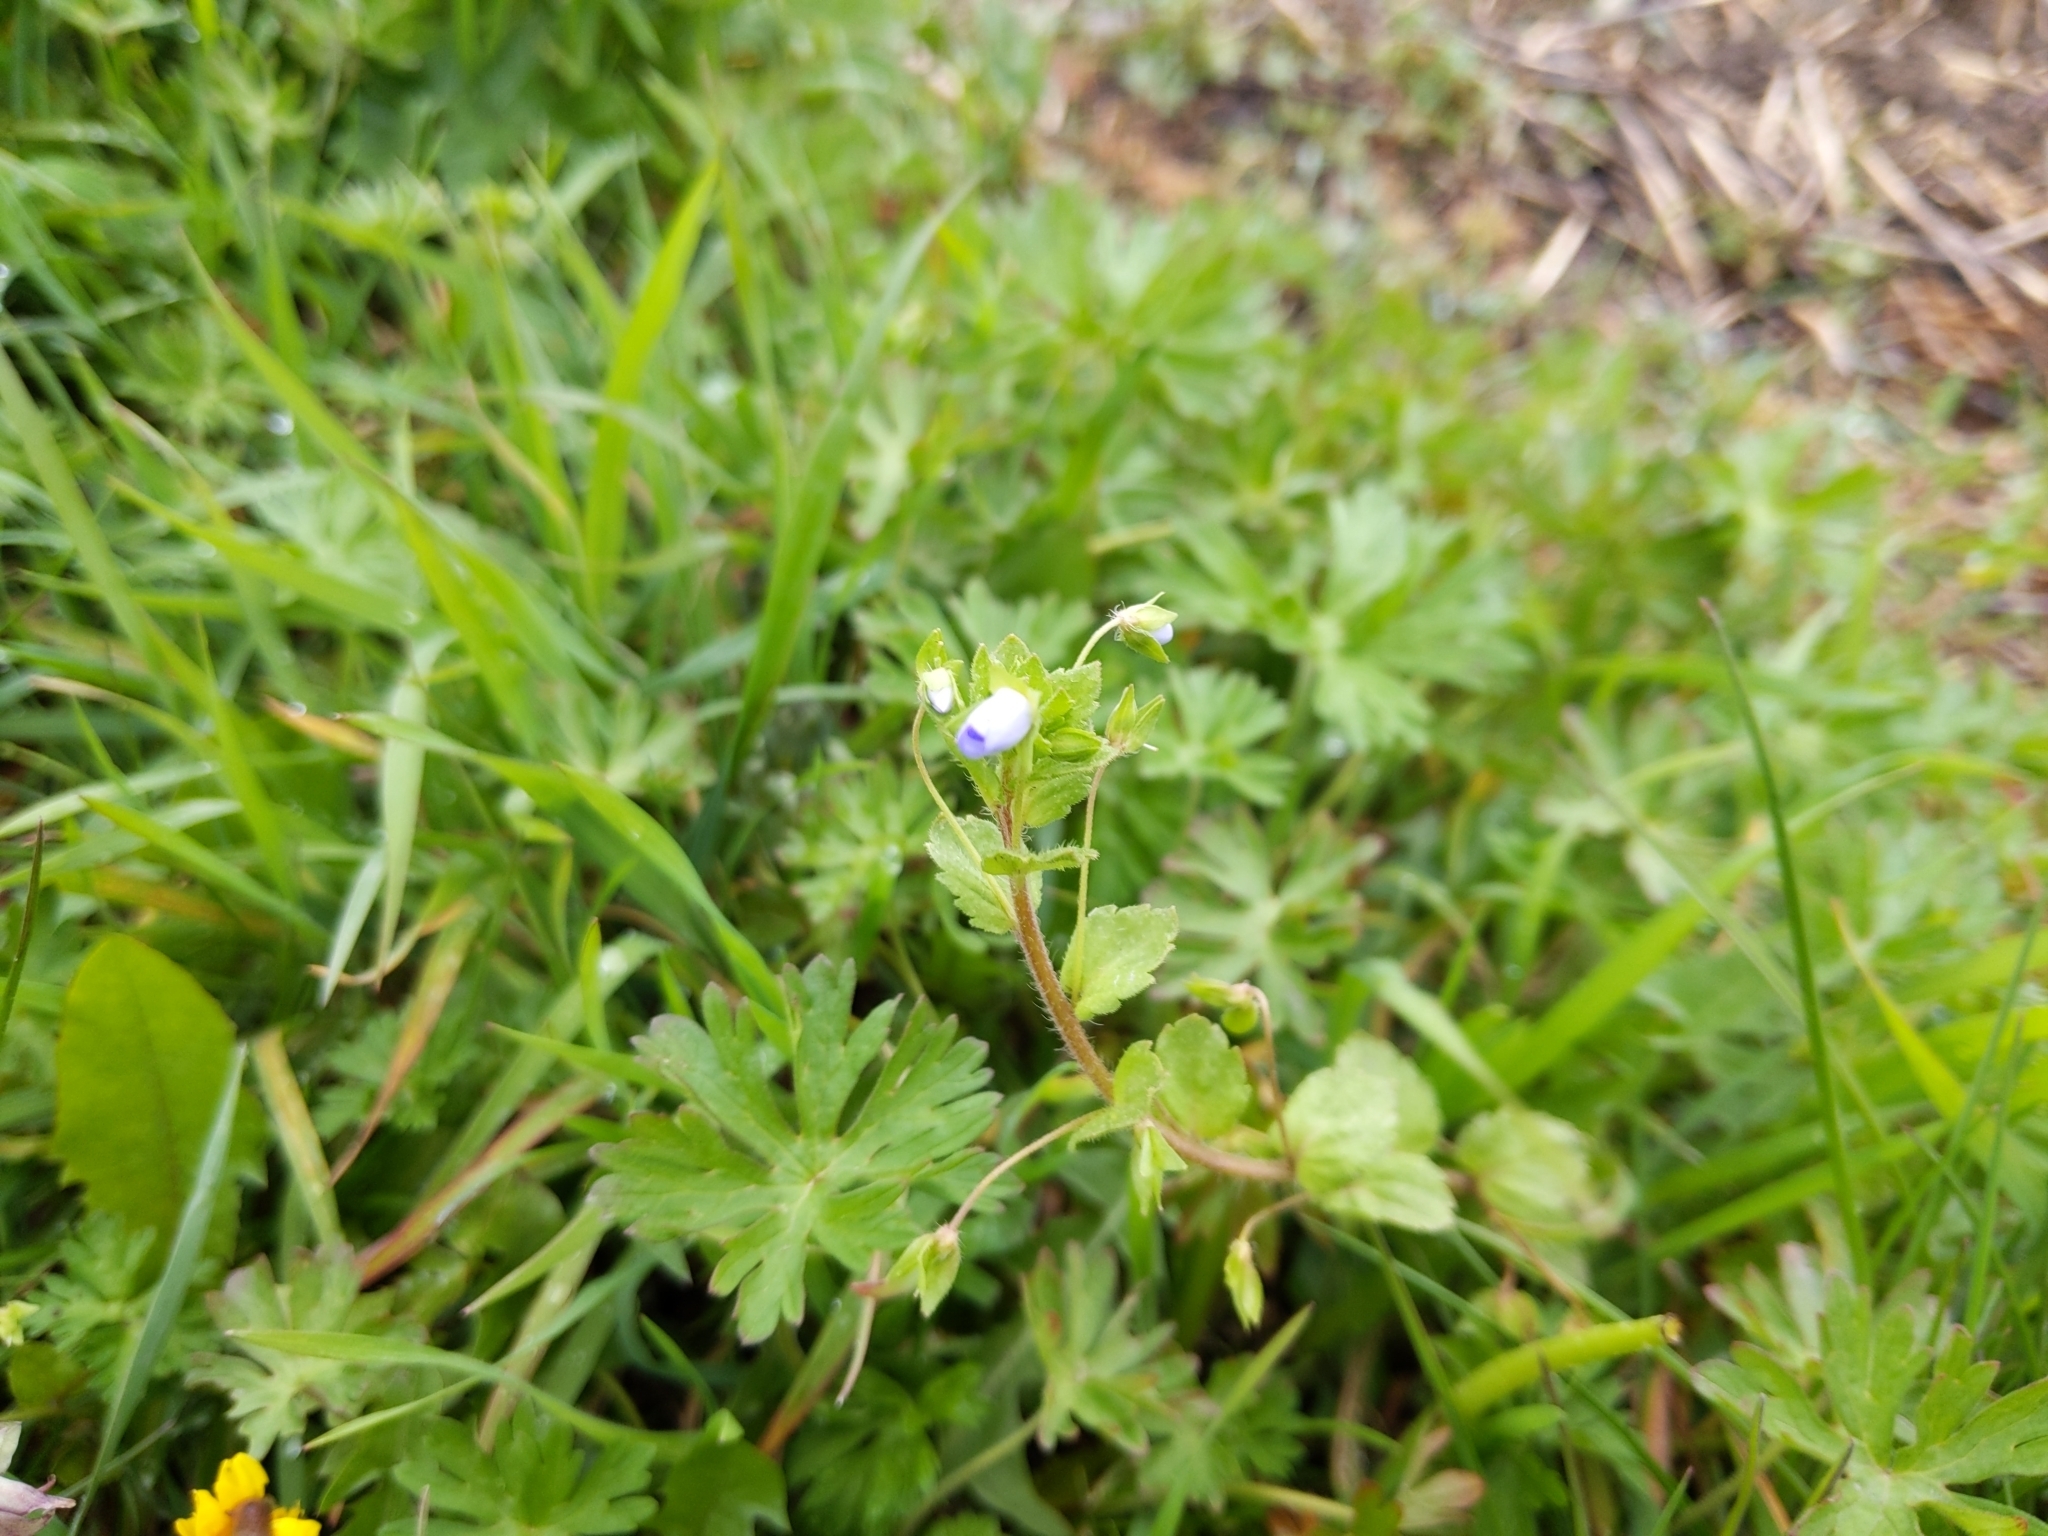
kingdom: Plantae
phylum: Tracheophyta
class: Magnoliopsida
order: Lamiales
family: Plantaginaceae
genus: Veronica
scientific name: Veronica persica
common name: Common field-speedwell
